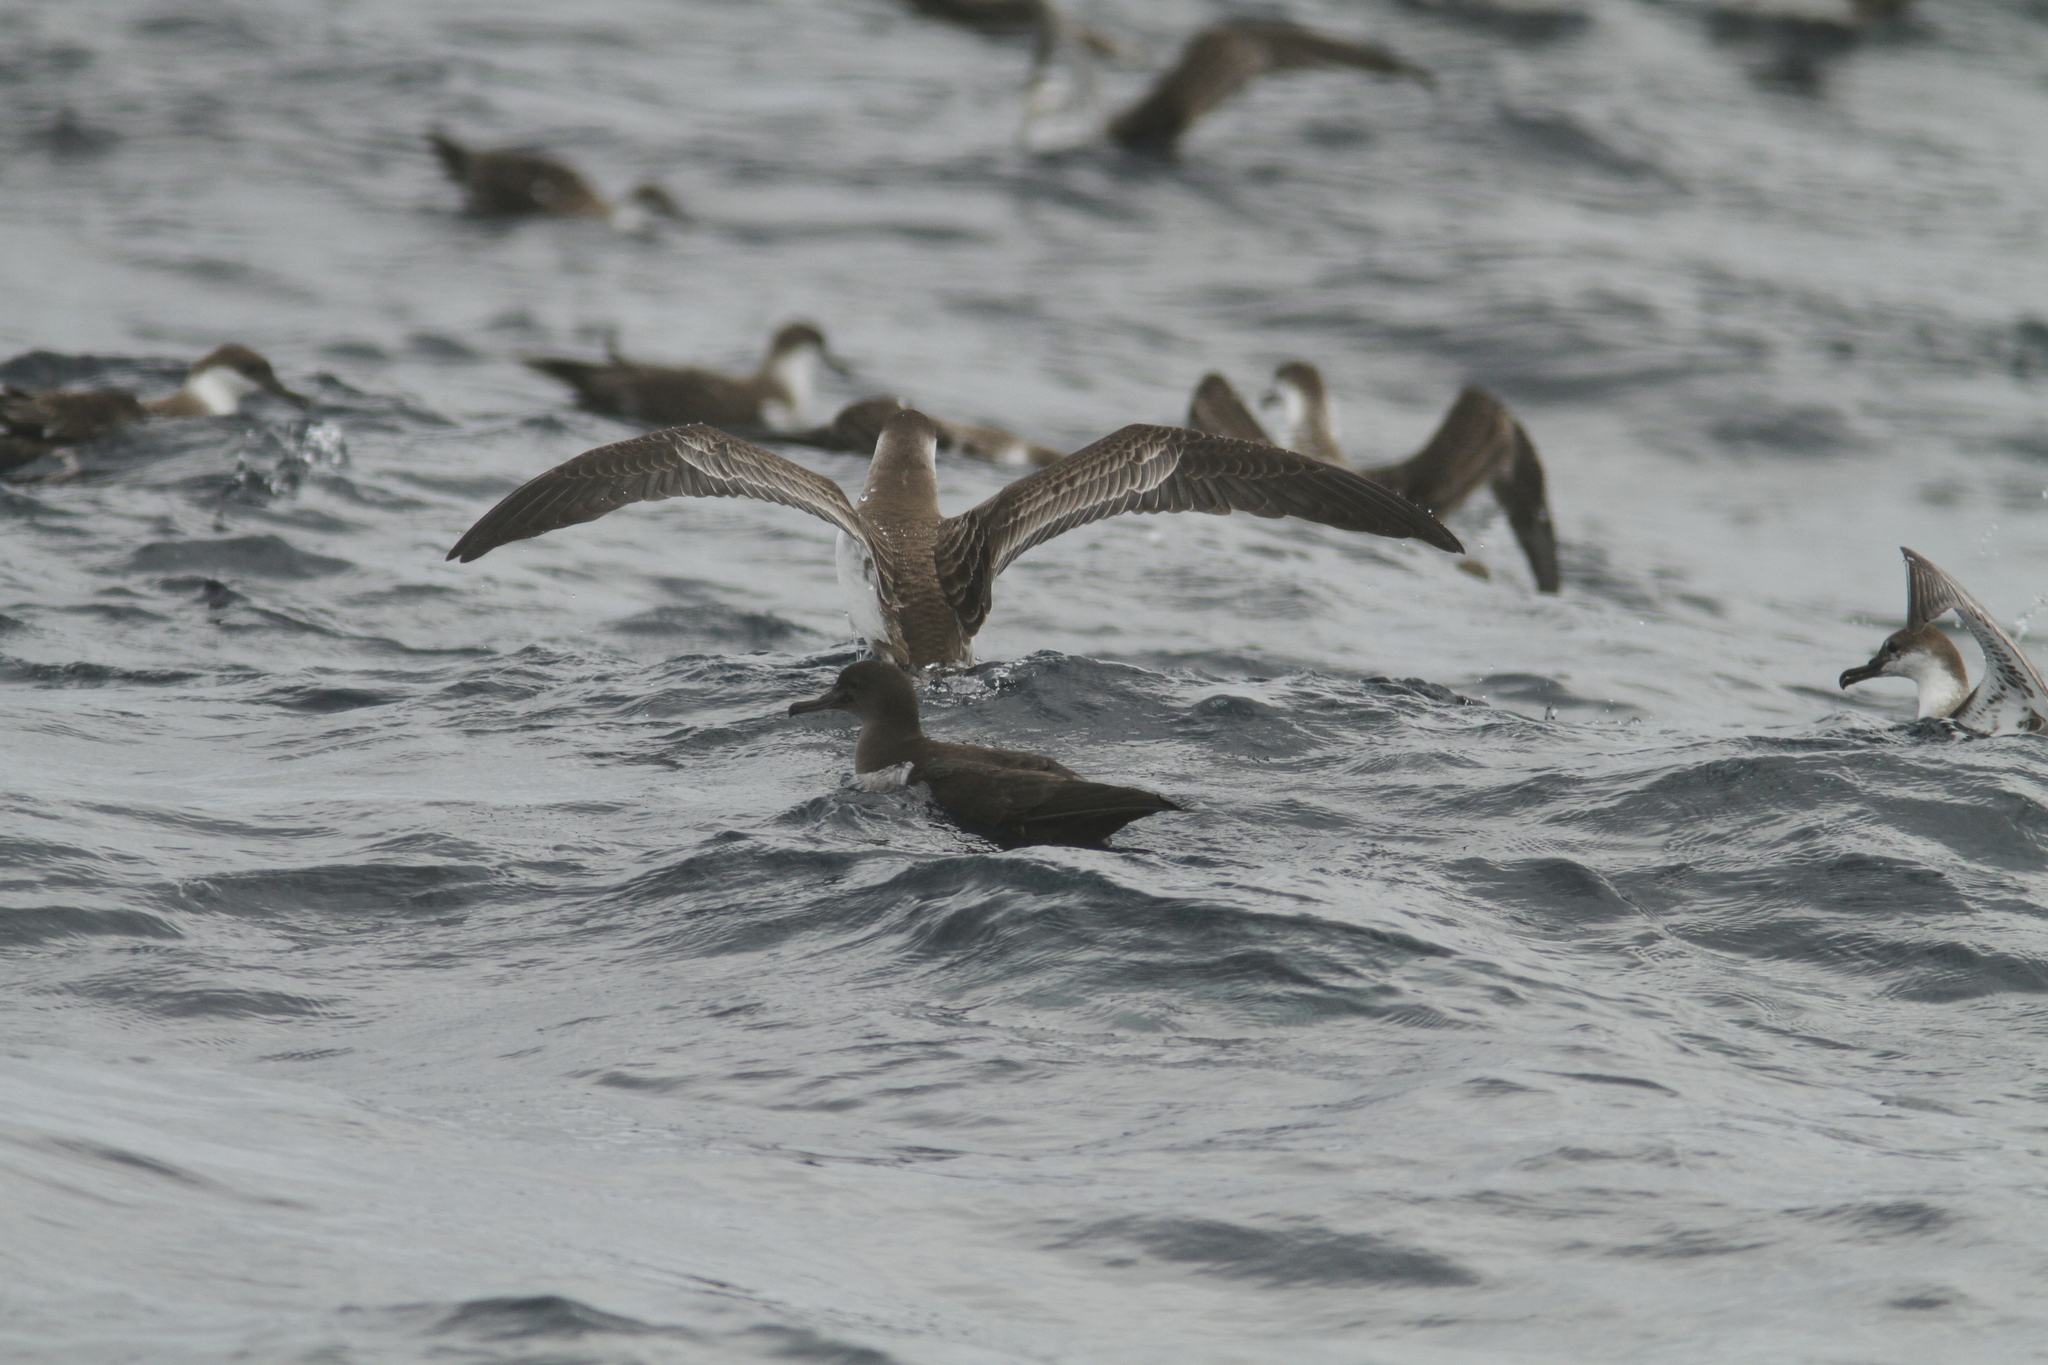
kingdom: Animalia
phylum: Chordata
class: Aves
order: Procellariiformes
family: Procellariidae
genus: Puffinus
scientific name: Puffinus gravis
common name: Great shearwater
